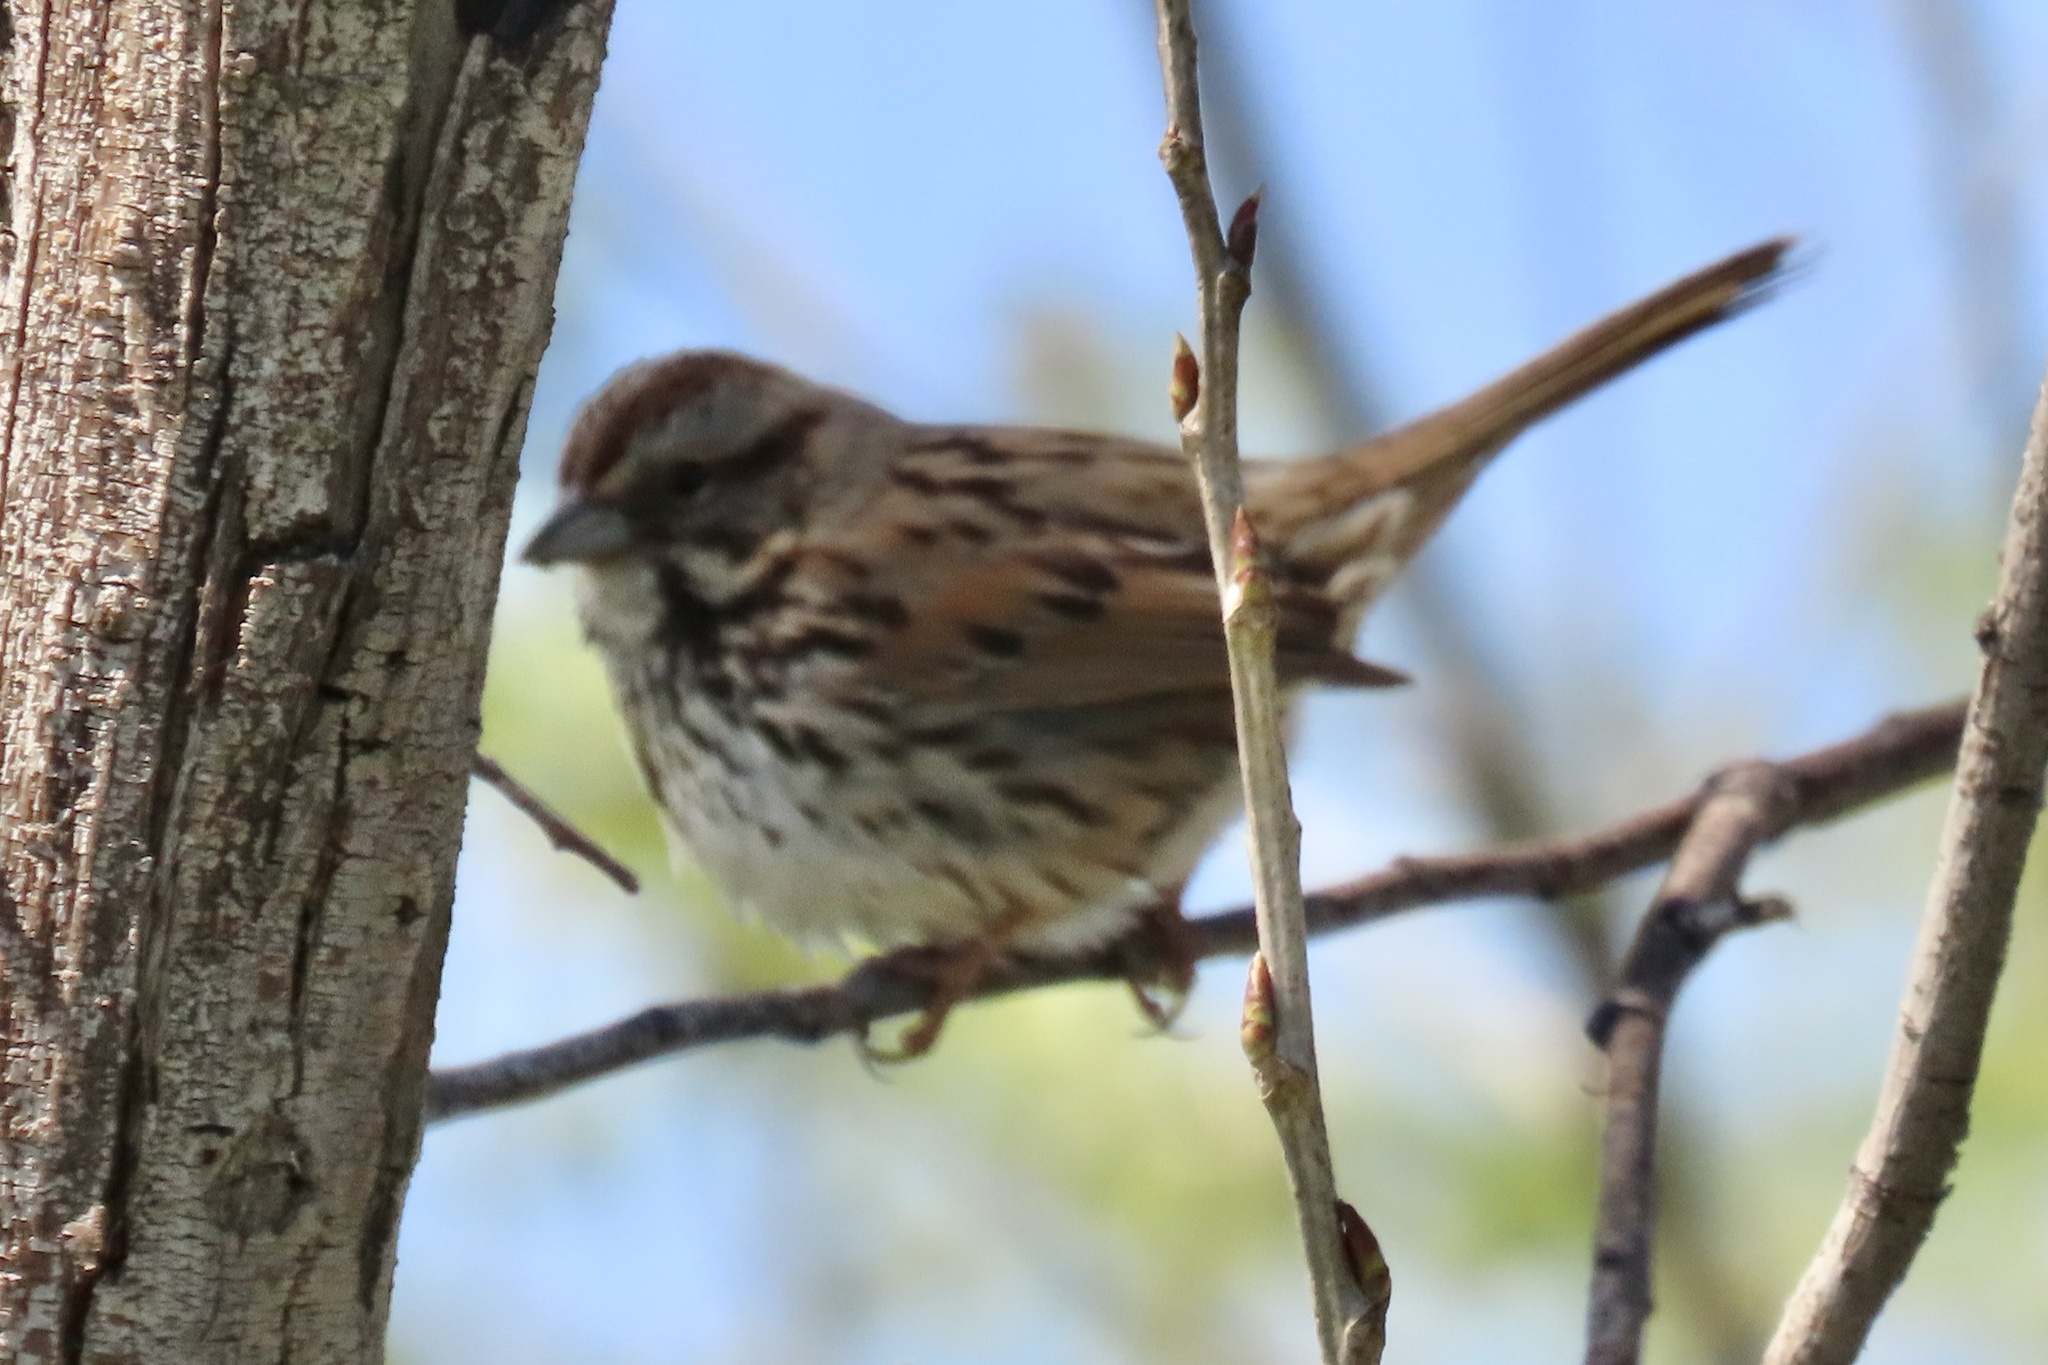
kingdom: Animalia
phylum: Chordata
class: Aves
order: Passeriformes
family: Passerellidae
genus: Melospiza
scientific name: Melospiza melodia
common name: Song sparrow
